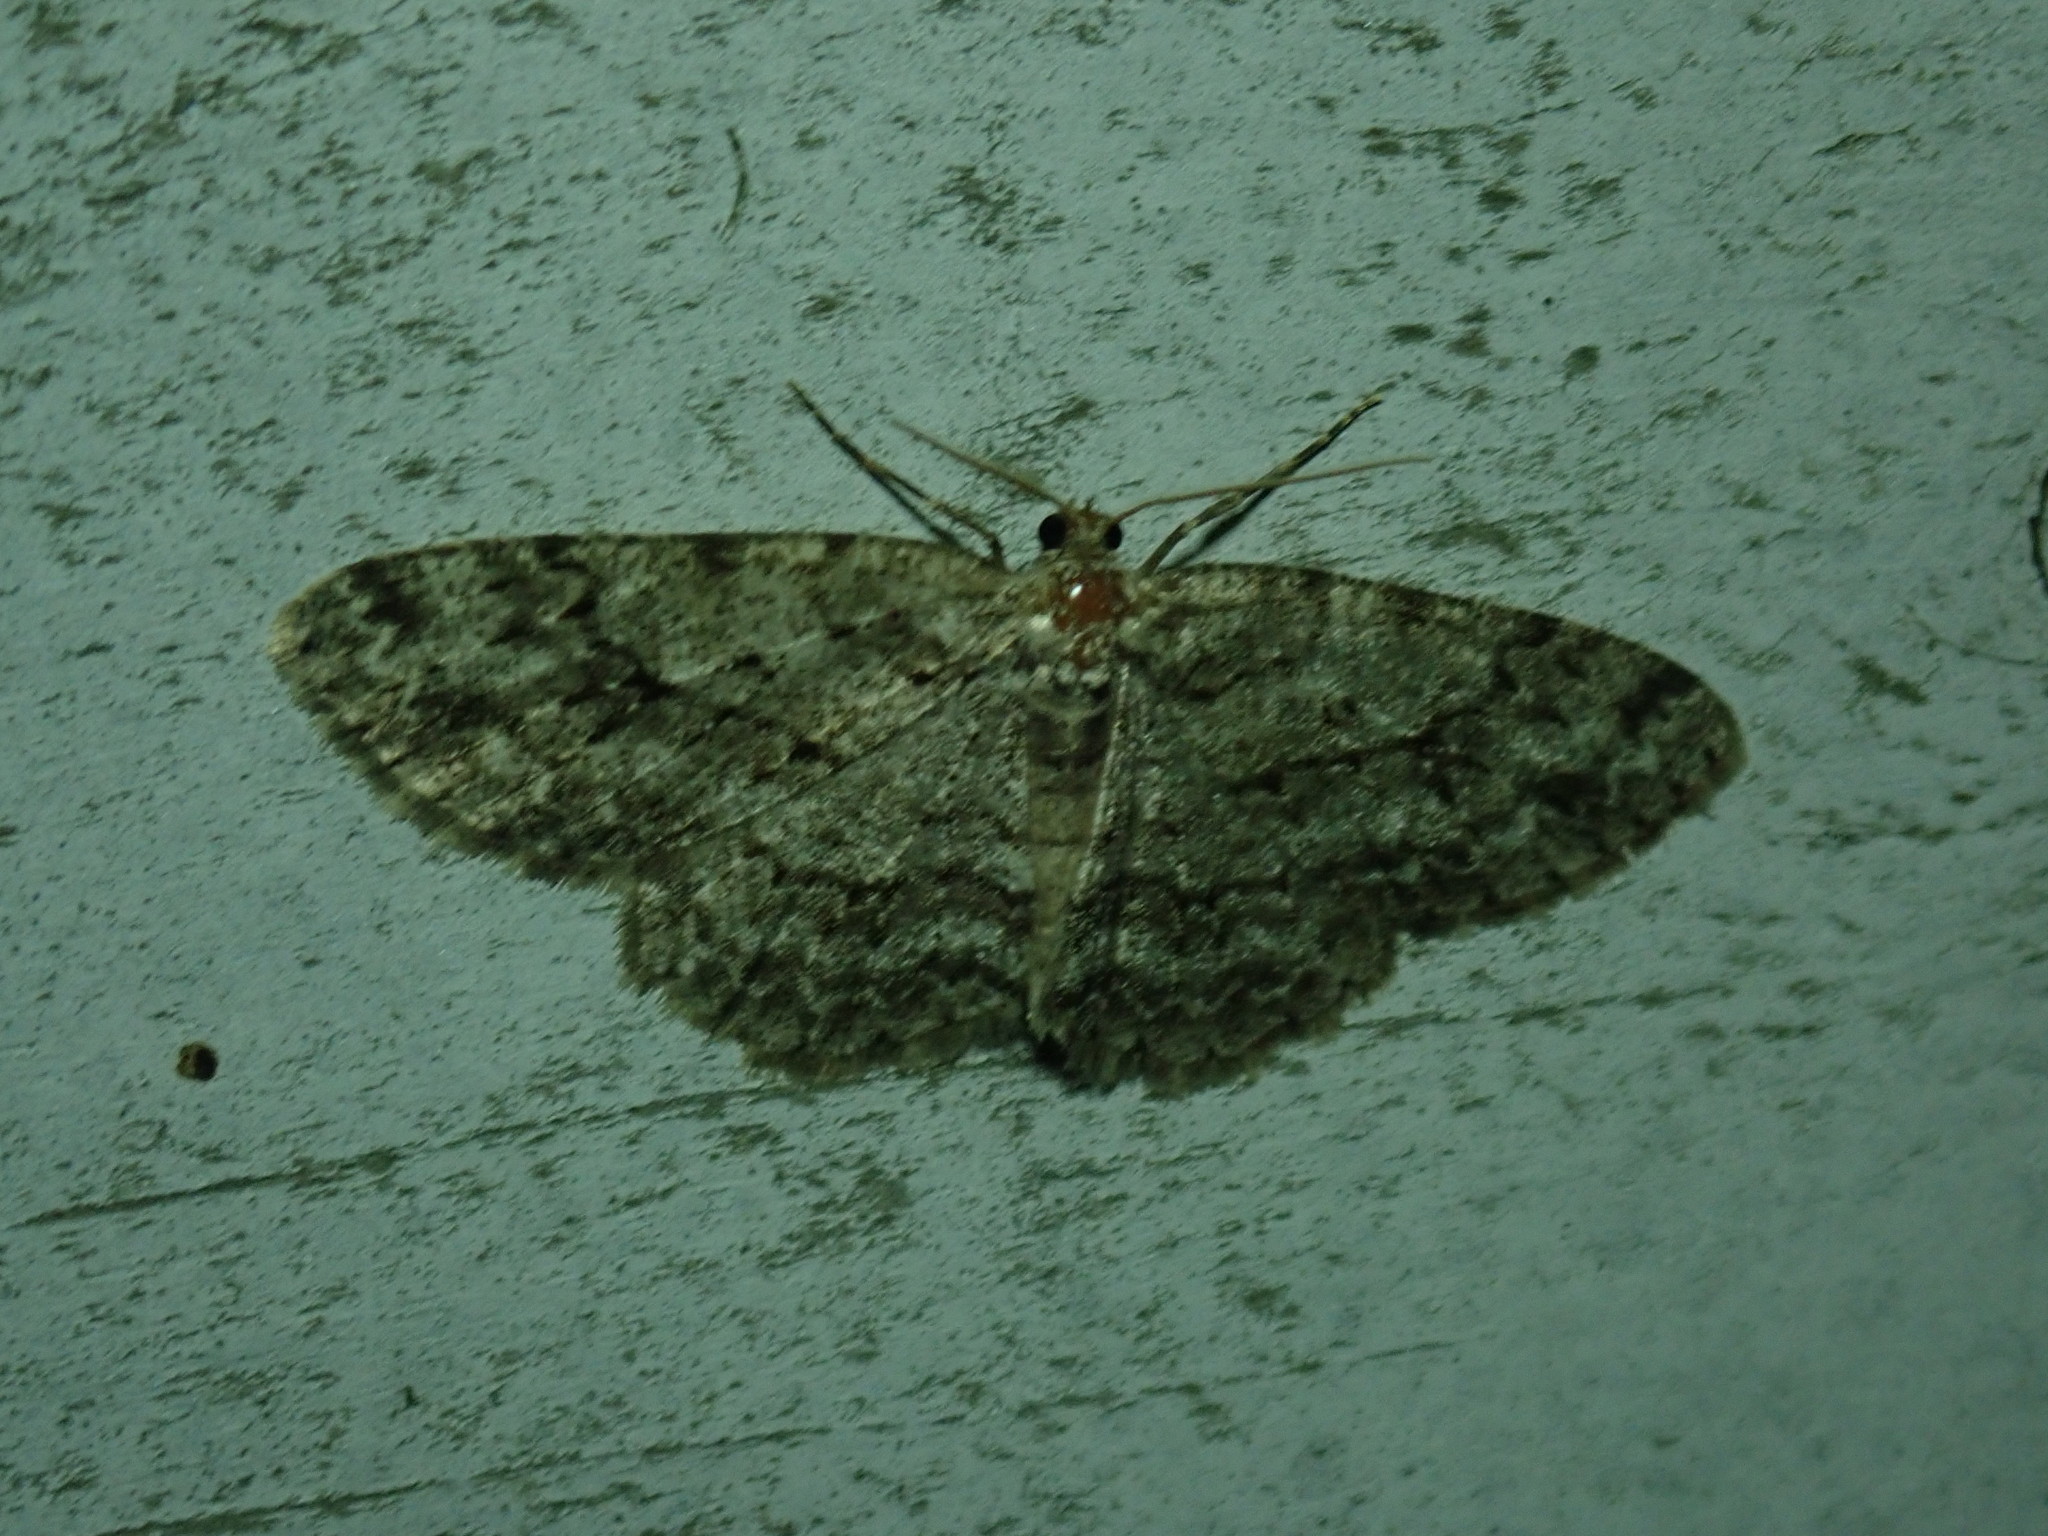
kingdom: Animalia
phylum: Arthropoda
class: Insecta
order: Lepidoptera
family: Geometridae
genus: Ectropis
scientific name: Ectropis crepuscularia
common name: Engrailed
